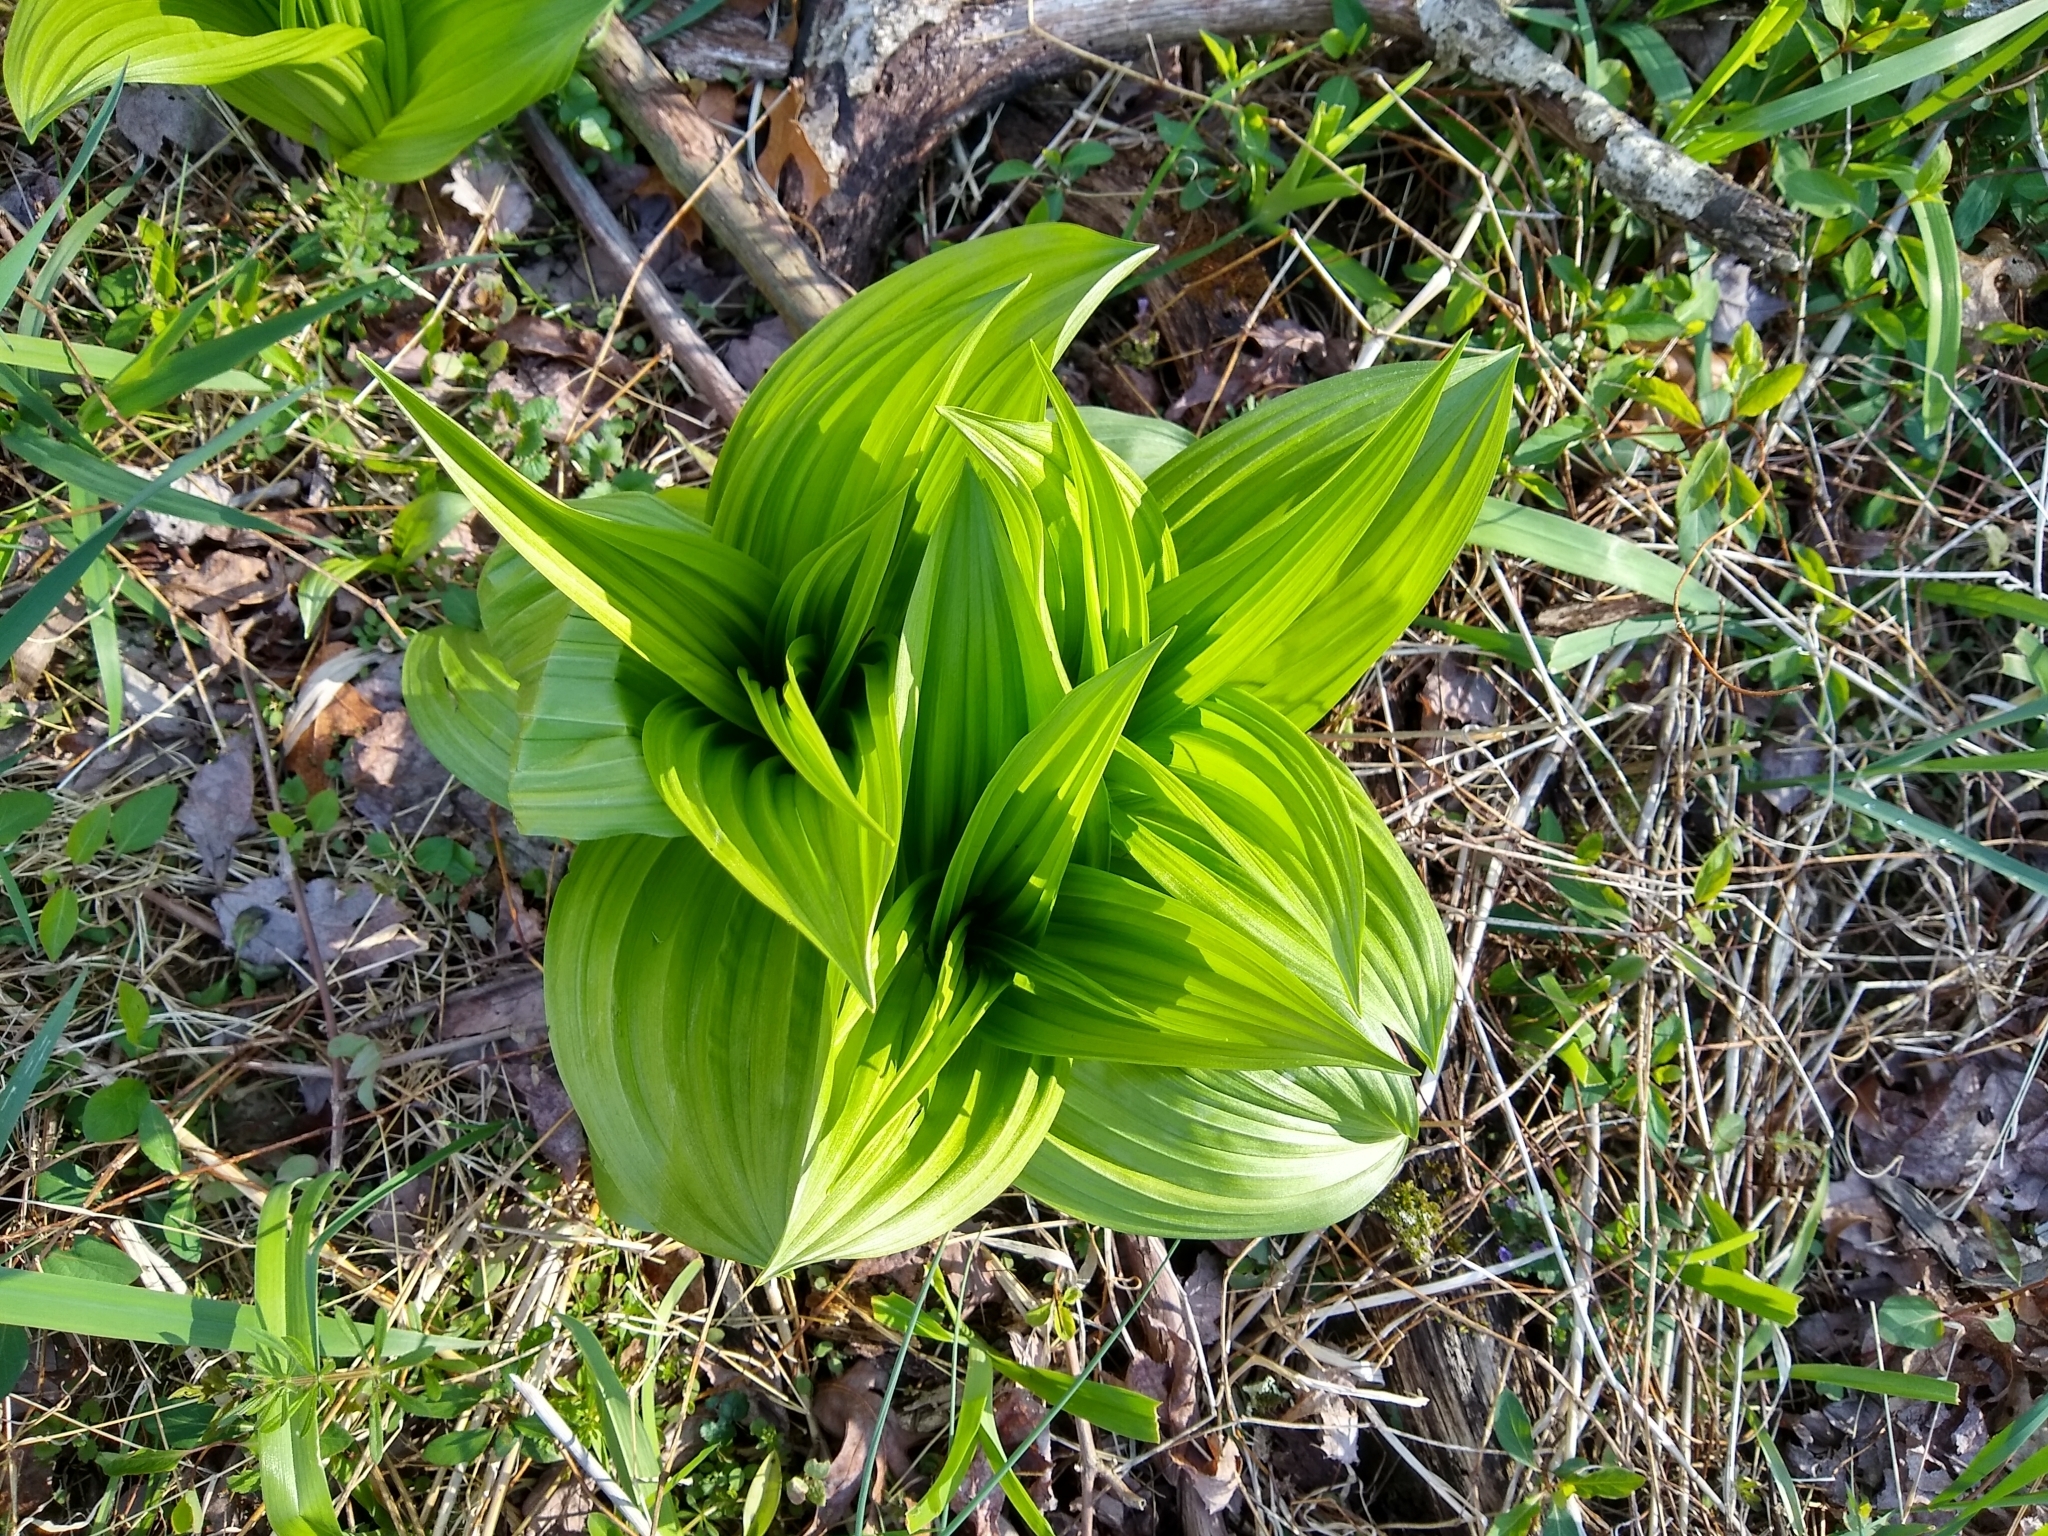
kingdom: Plantae
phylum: Tracheophyta
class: Liliopsida
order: Liliales
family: Melanthiaceae
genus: Veratrum
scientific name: Veratrum viride
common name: American false hellebore
